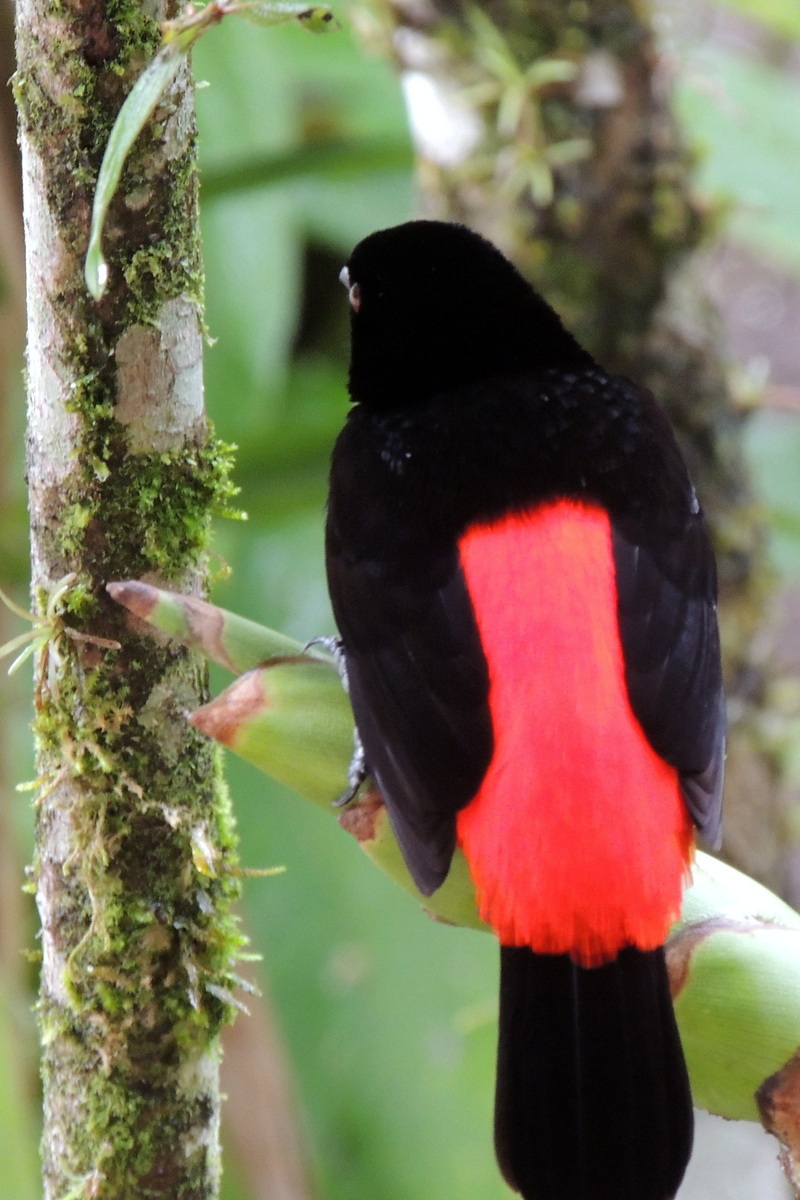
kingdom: Animalia
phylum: Chordata
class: Aves
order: Passeriformes
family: Thraupidae
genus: Ramphocelus
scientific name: Ramphocelus passerinii
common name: Passerini's tanager
